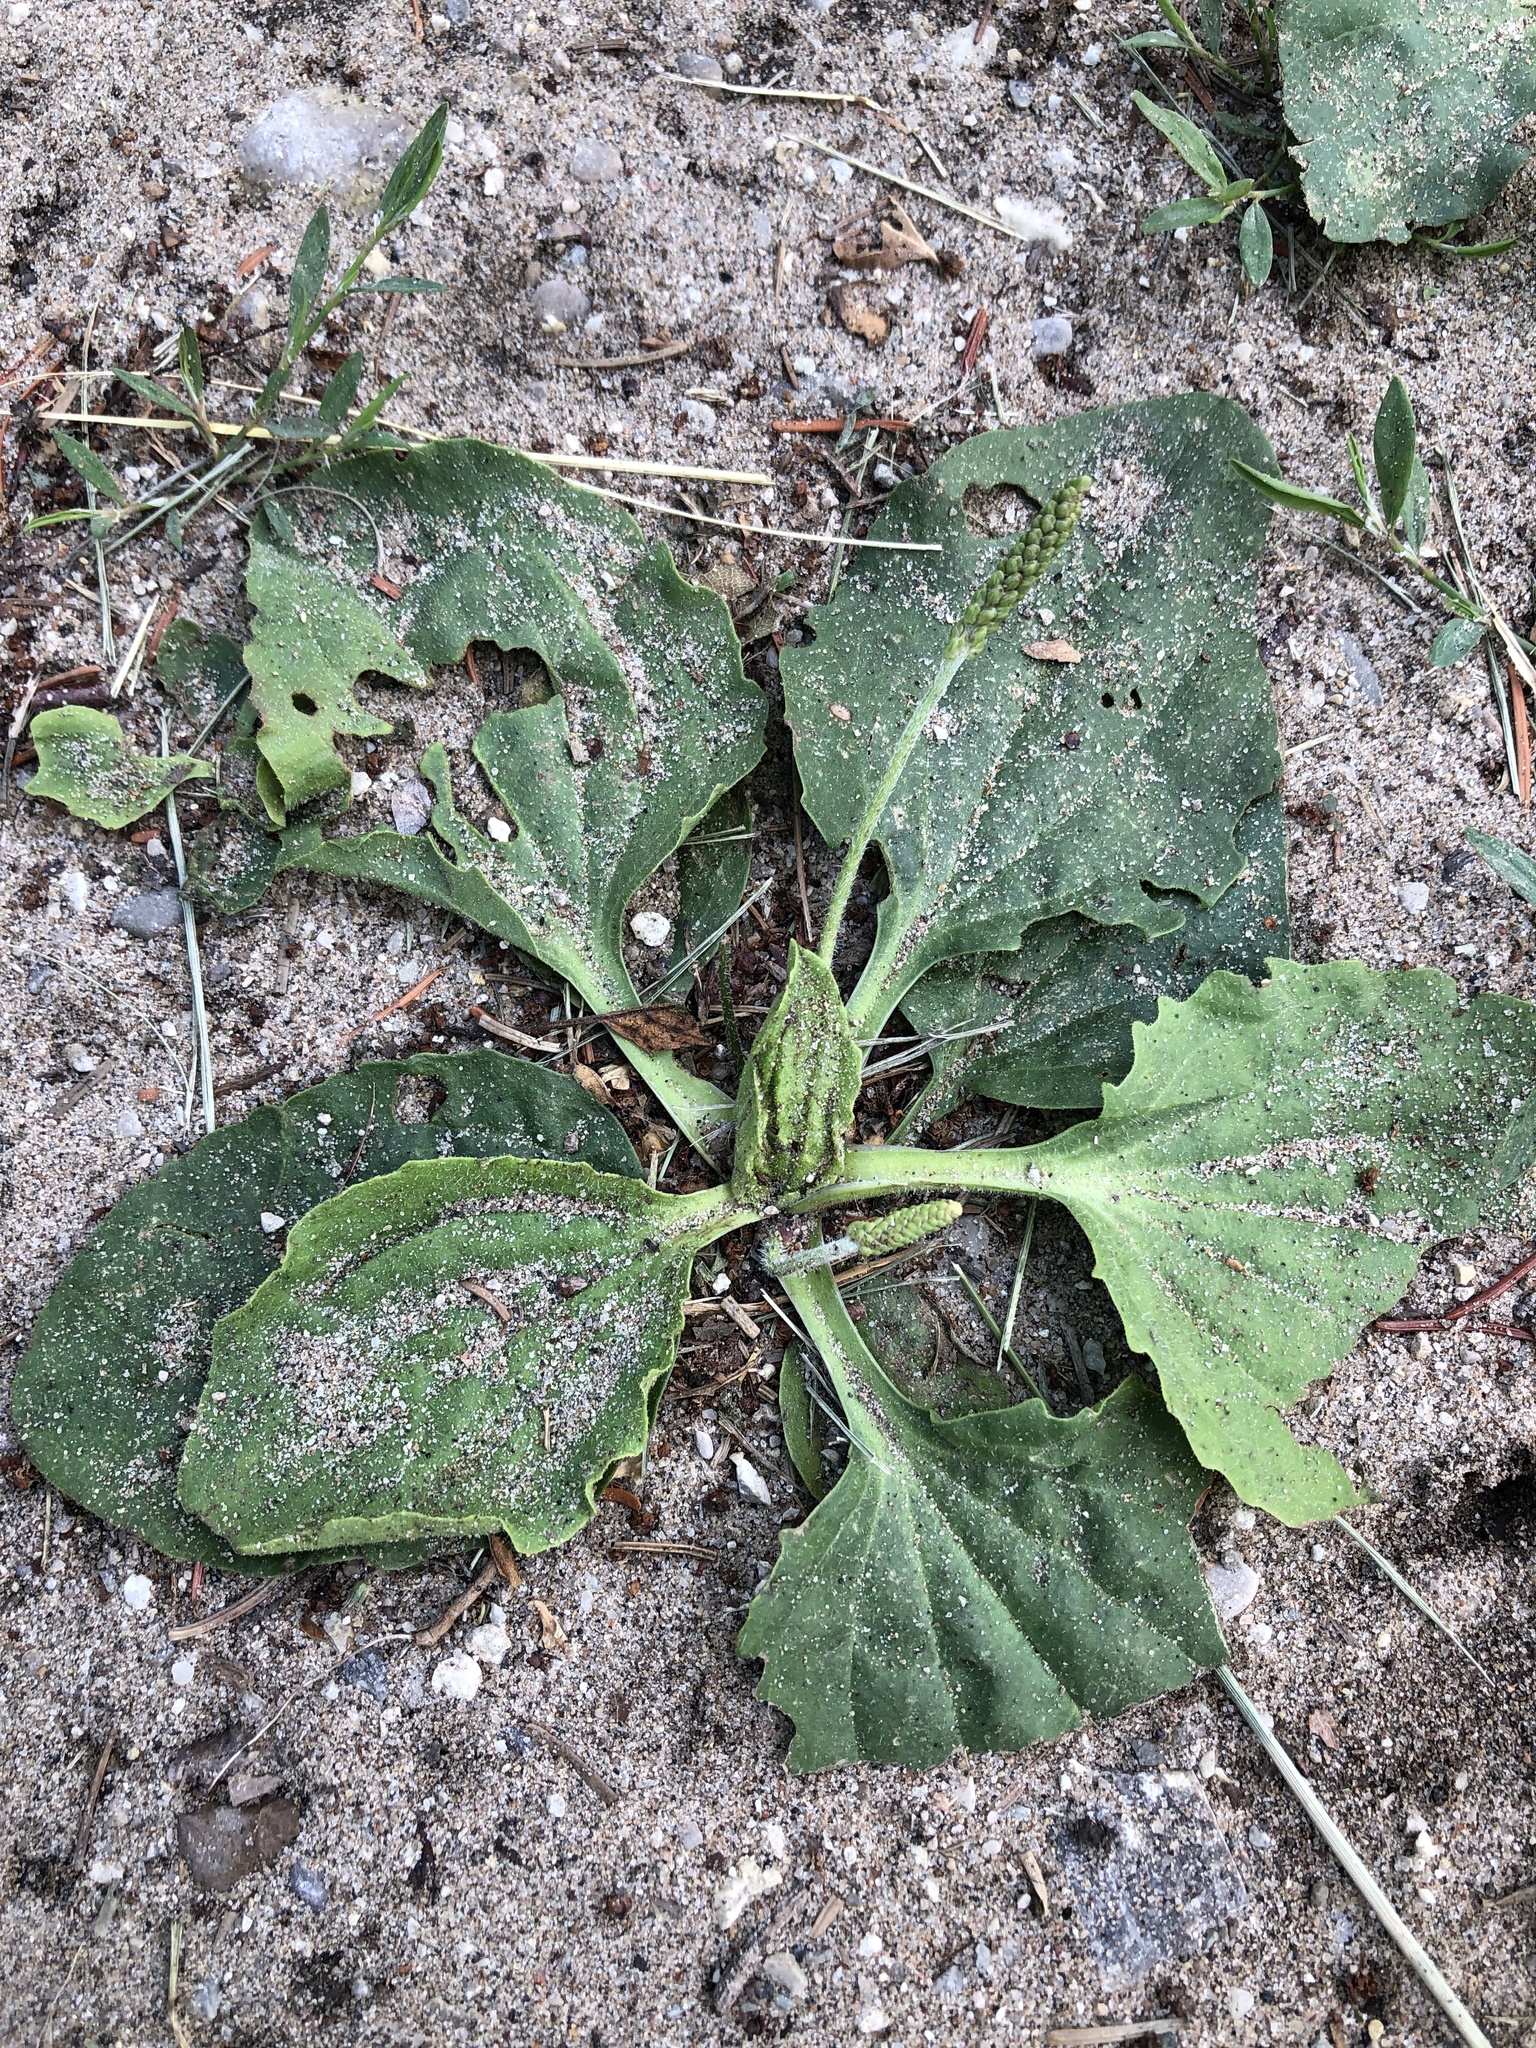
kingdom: Plantae
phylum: Tracheophyta
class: Magnoliopsida
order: Lamiales
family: Plantaginaceae
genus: Plantago
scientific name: Plantago major
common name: Common plantain
